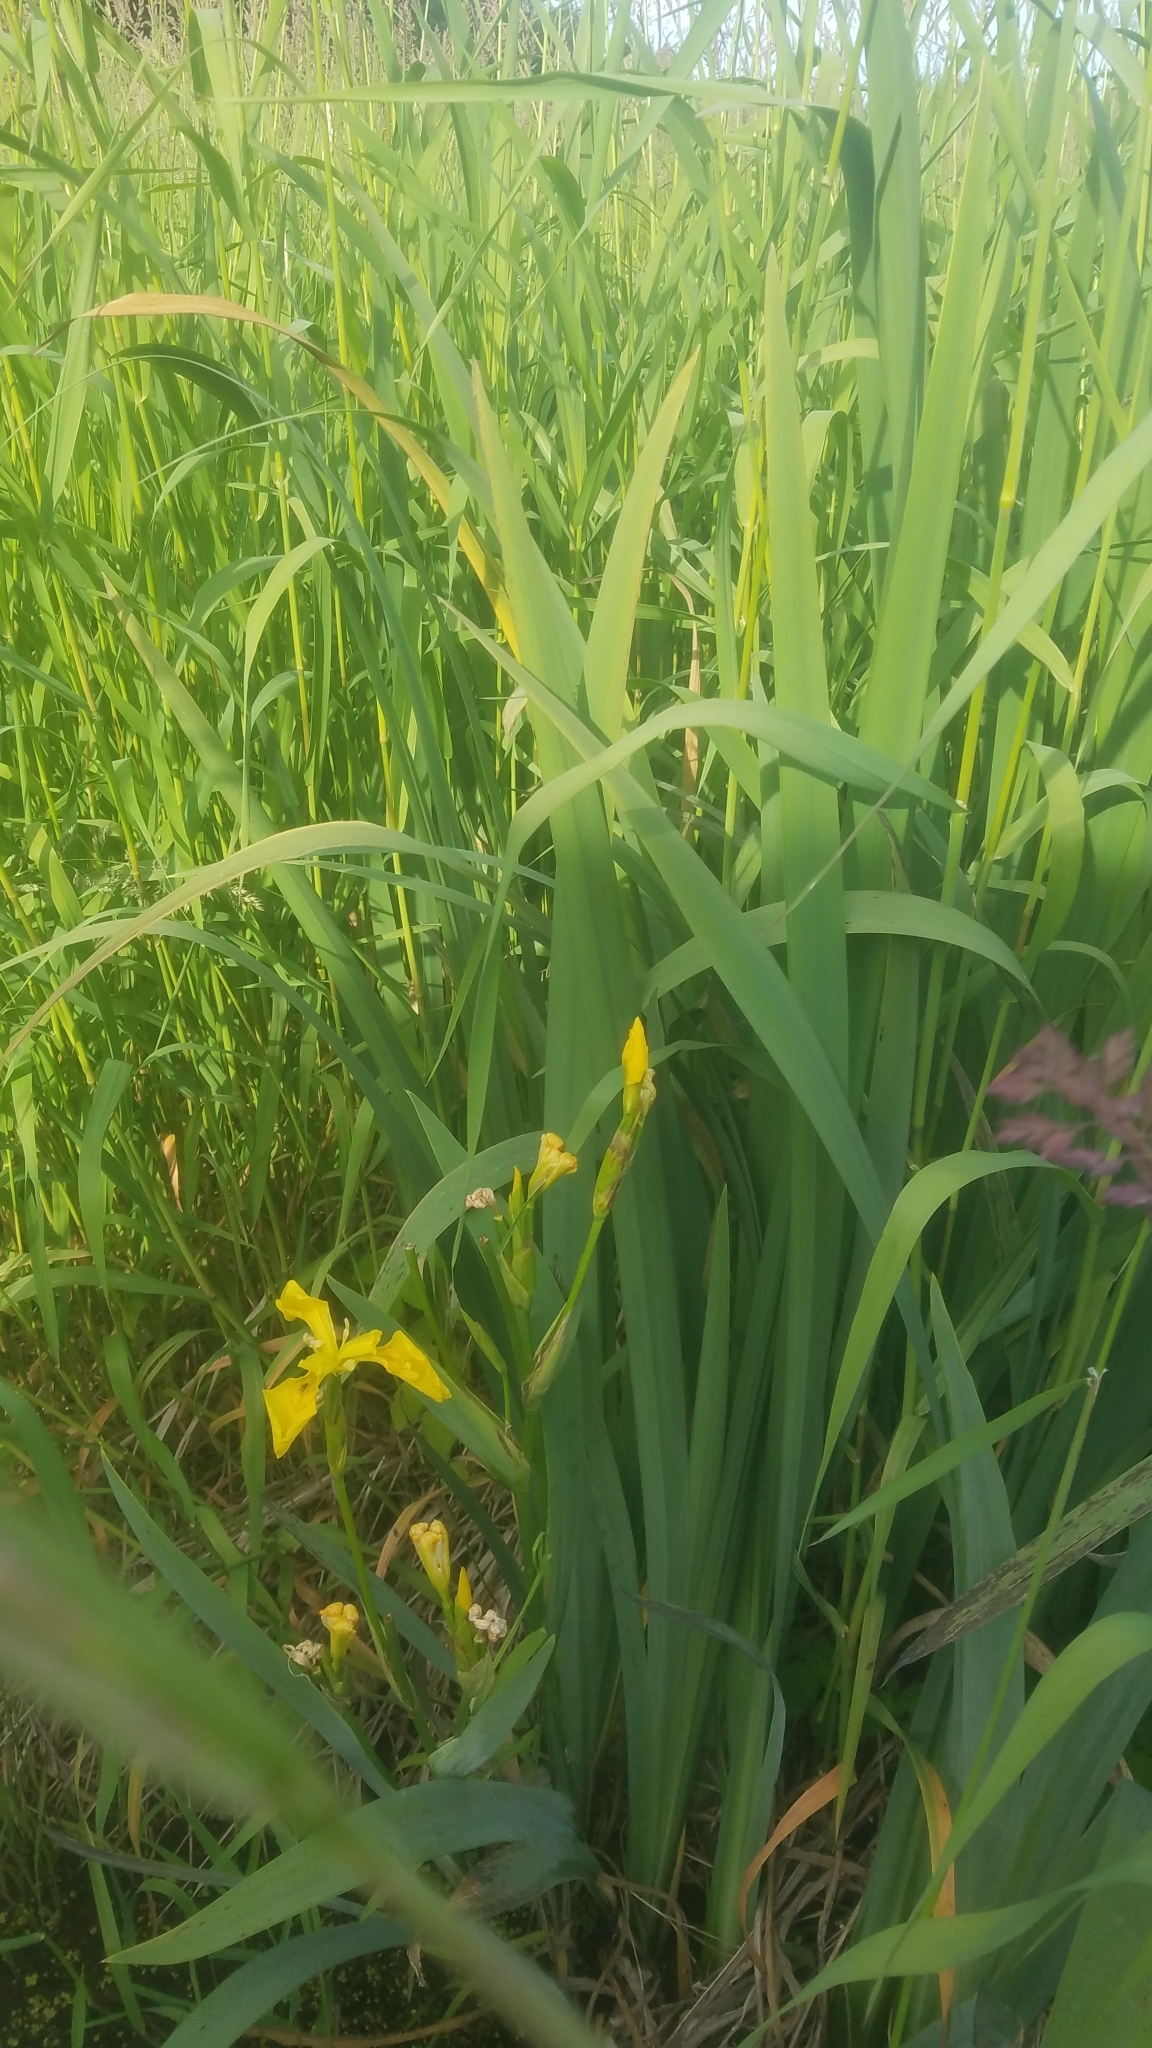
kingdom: Plantae
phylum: Tracheophyta
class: Liliopsida
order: Asparagales
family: Iridaceae
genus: Iris
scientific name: Iris pseudacorus
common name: Yellow flag
